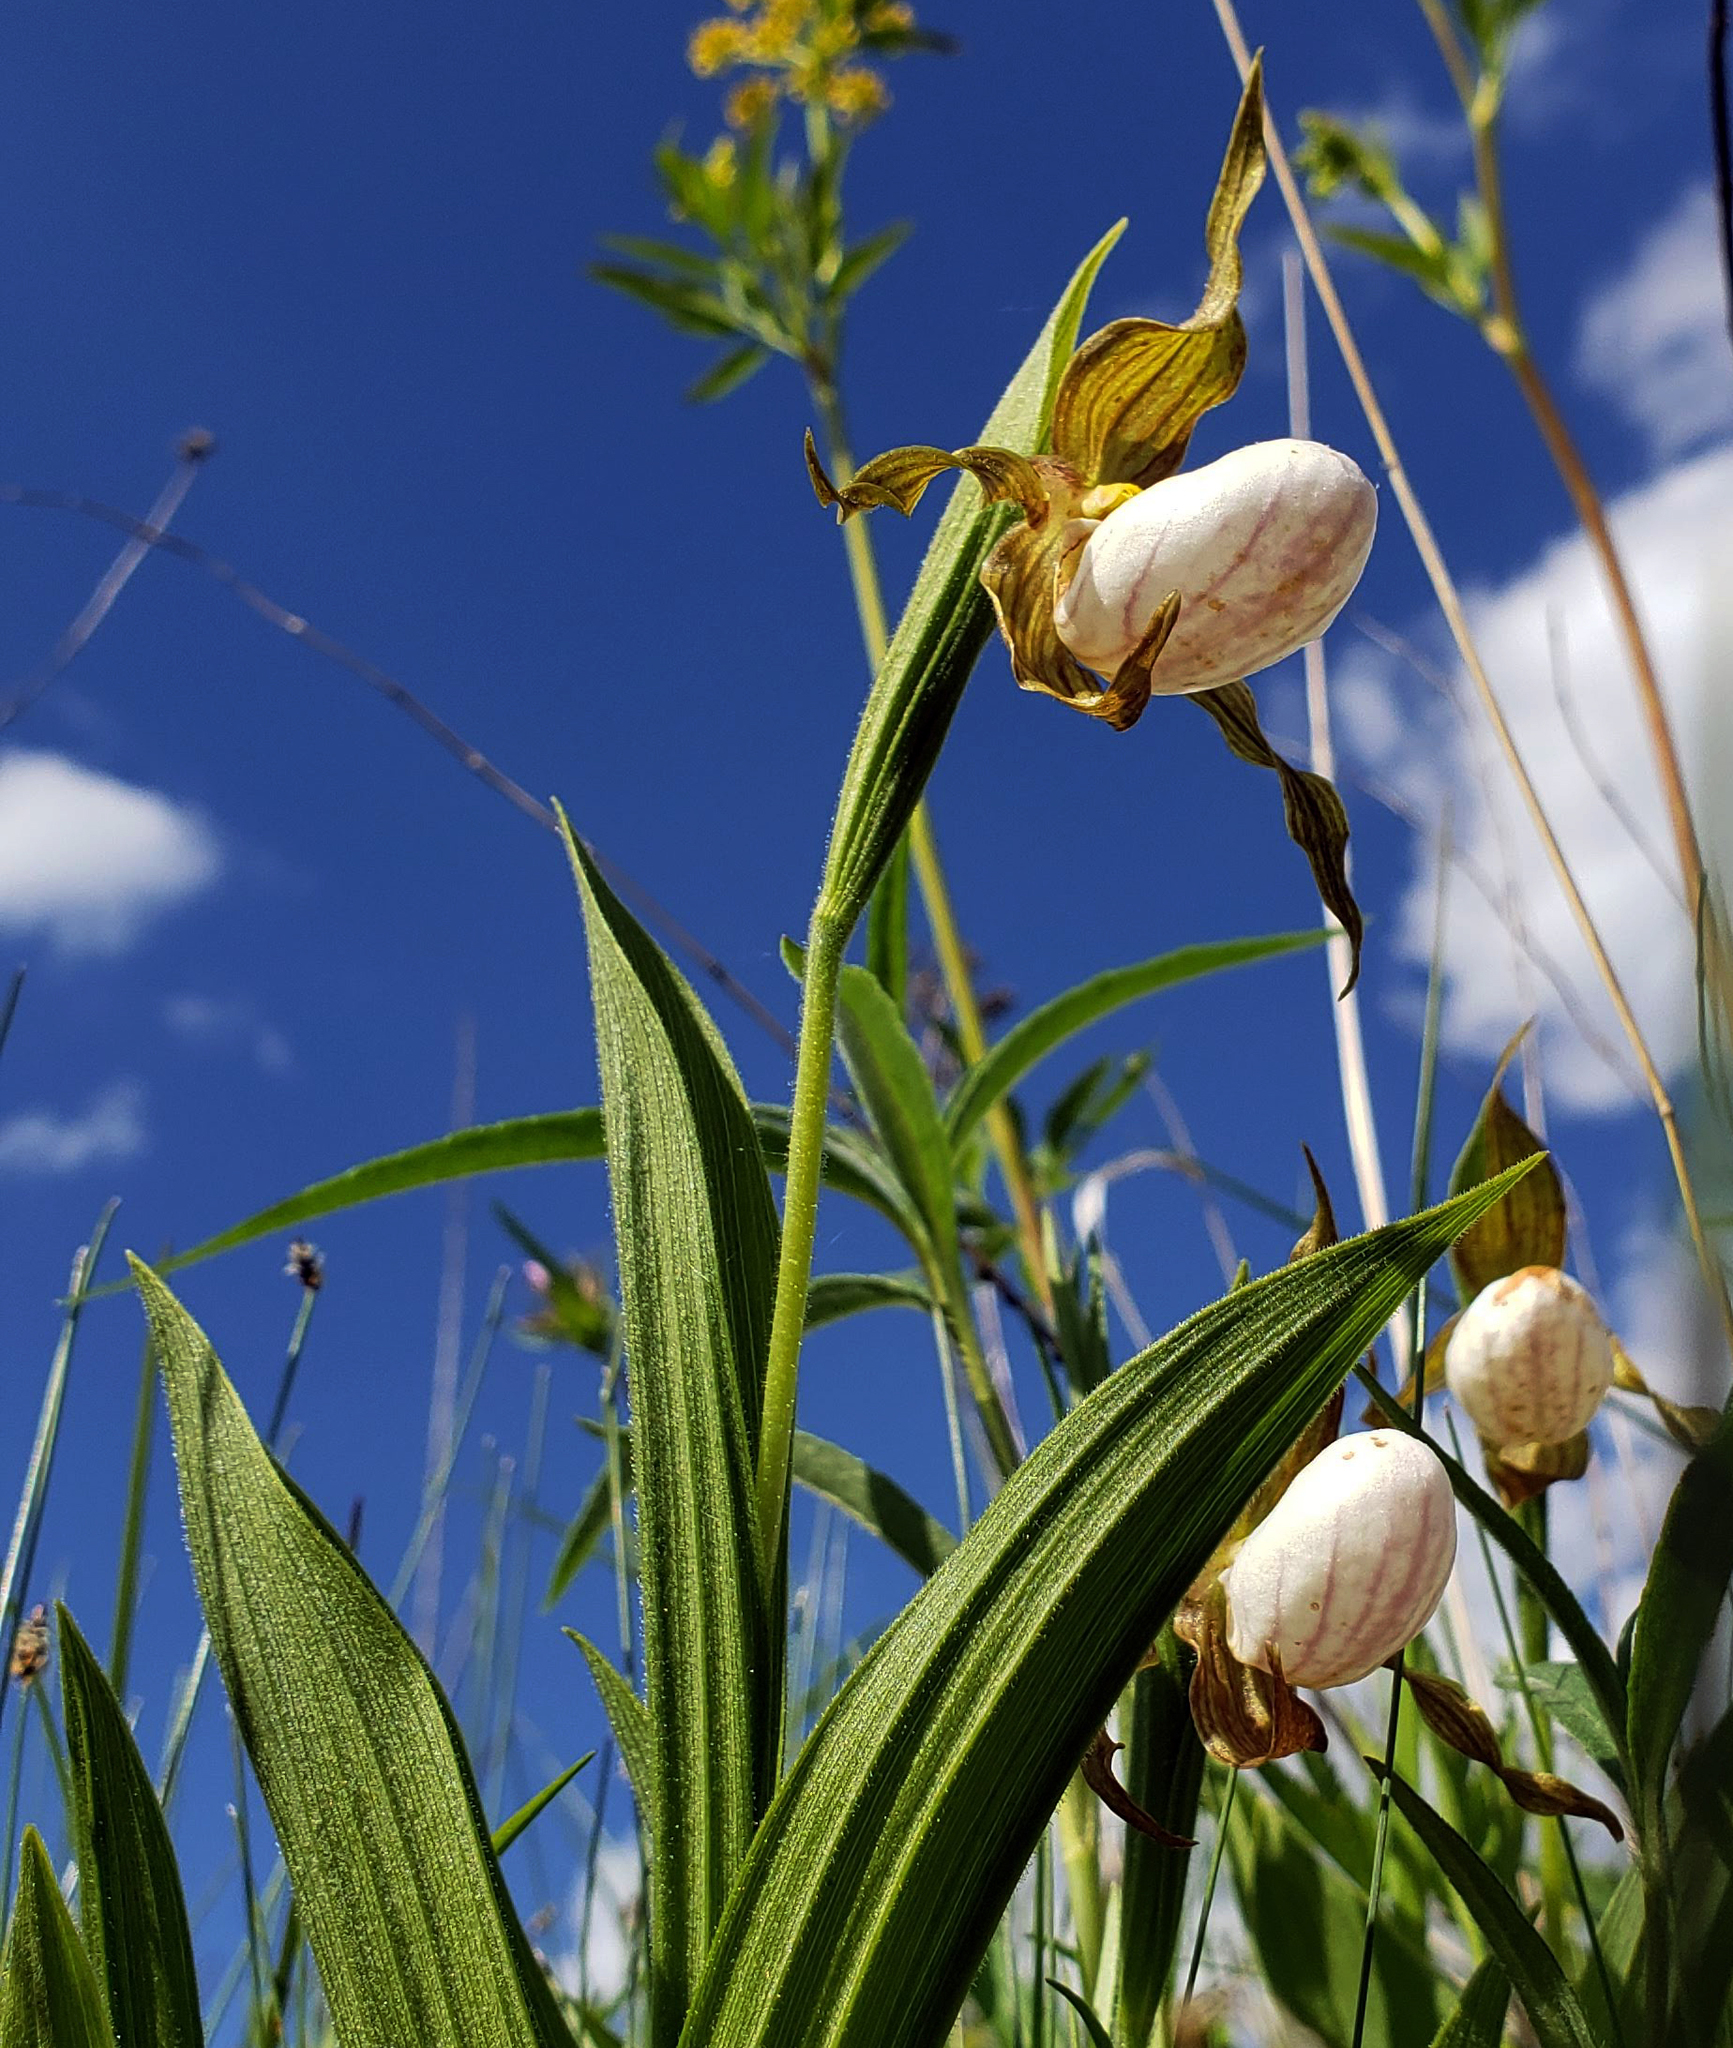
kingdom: Plantae
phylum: Tracheophyta
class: Liliopsida
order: Asparagales
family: Orchidaceae
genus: Cypripedium
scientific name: Cypripedium candidum
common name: White lady's-slipper
